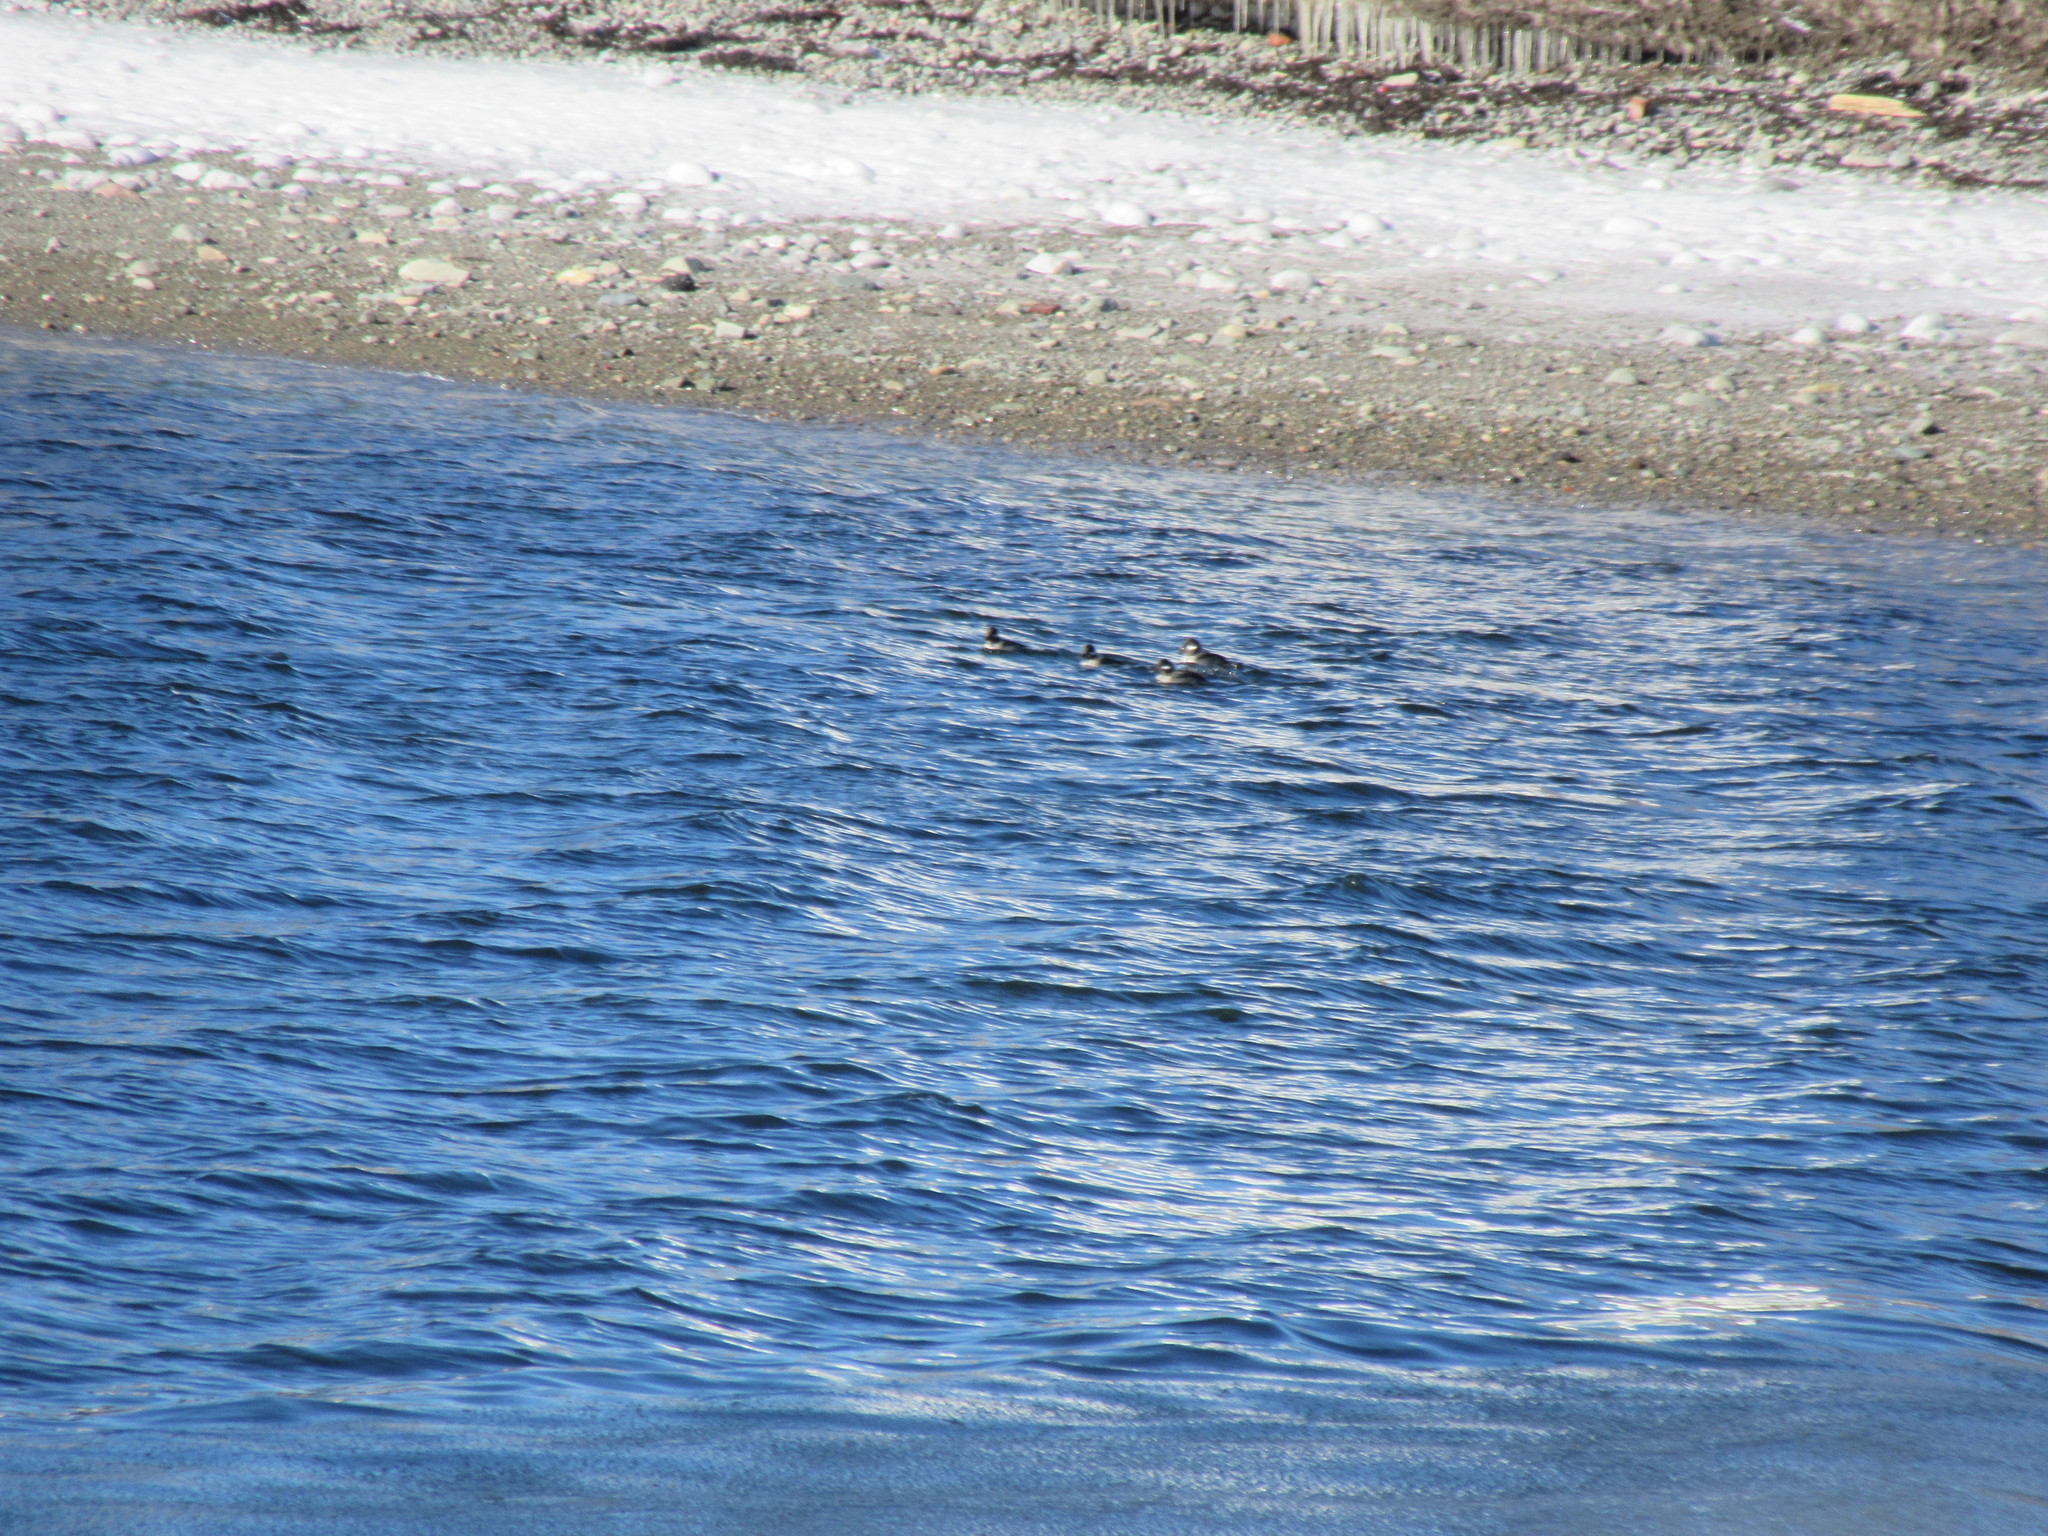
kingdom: Animalia
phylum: Chordata
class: Aves
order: Anseriformes
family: Anatidae
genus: Bucephala
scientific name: Bucephala albeola
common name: Bufflehead
